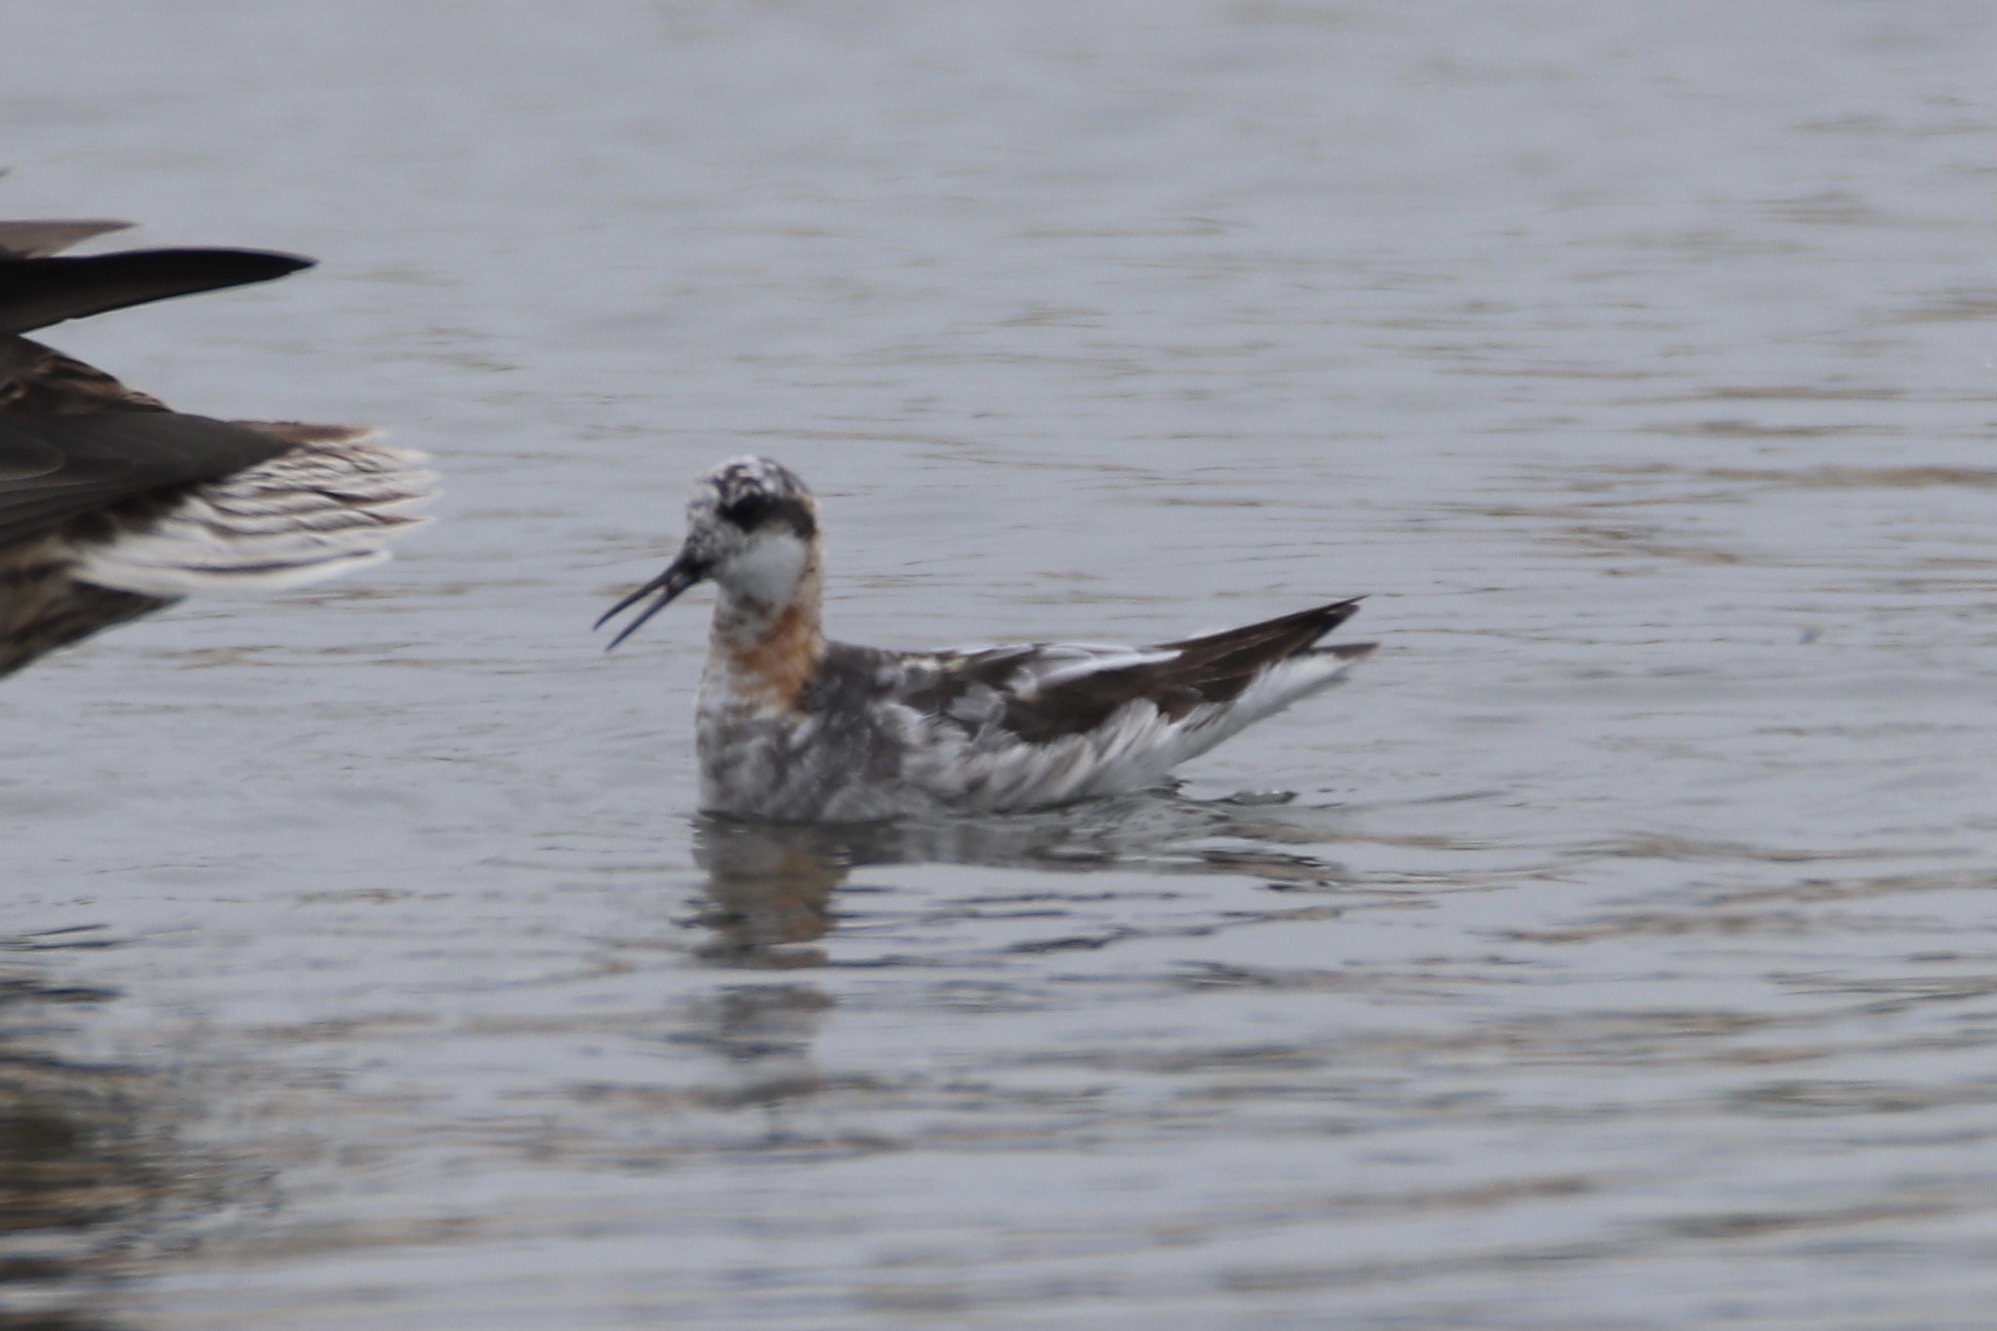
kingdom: Animalia
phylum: Chordata
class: Aves
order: Charadriiformes
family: Scolopacidae
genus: Phalaropus
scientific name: Phalaropus lobatus
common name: Red-necked phalarope
